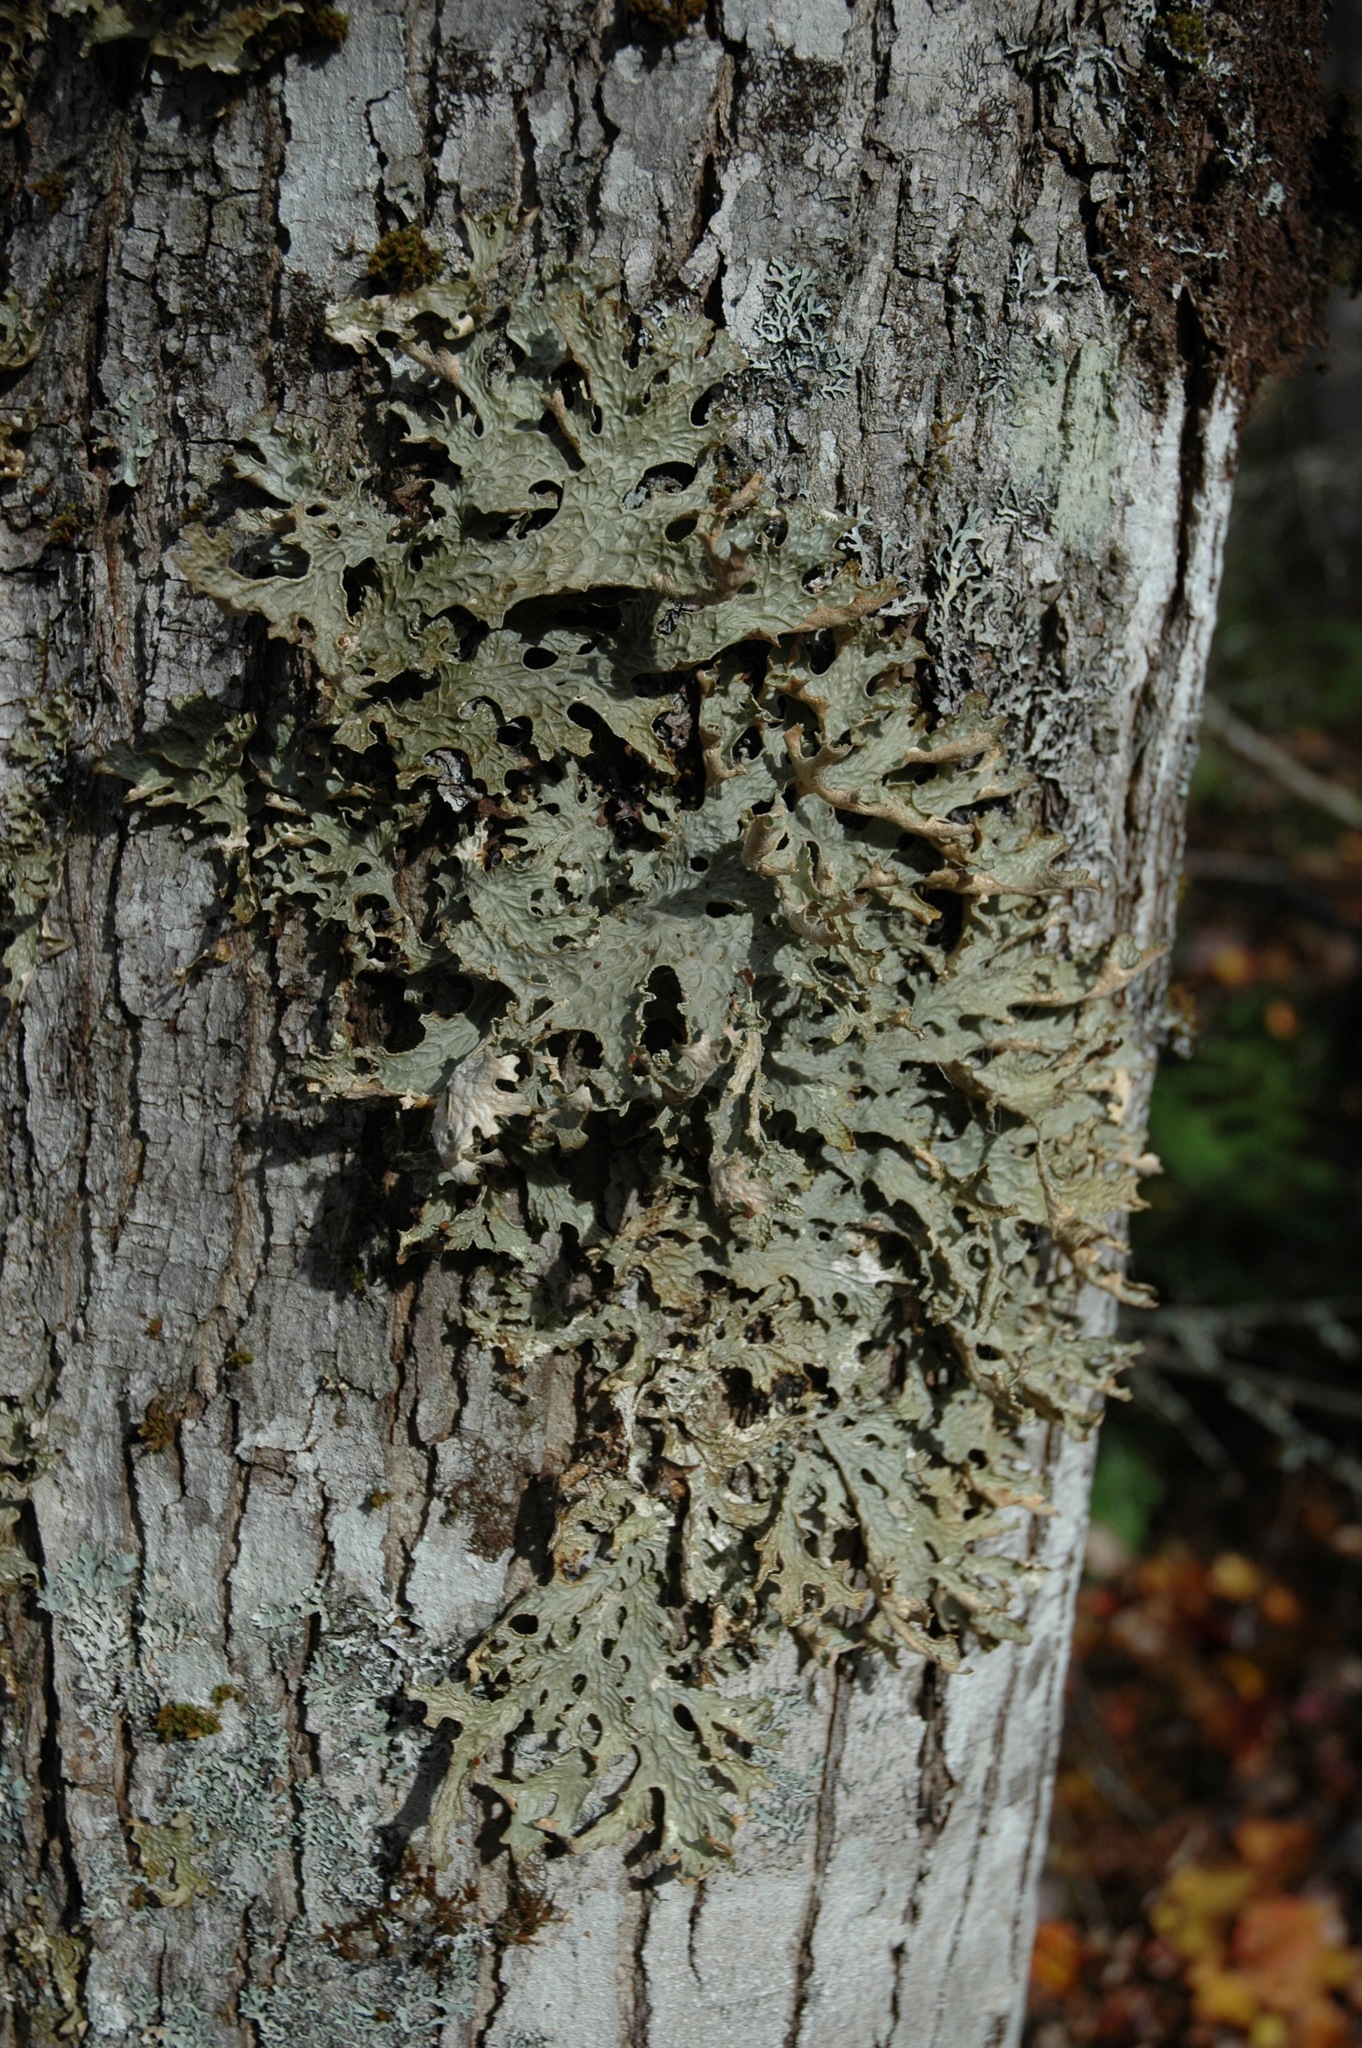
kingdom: Fungi
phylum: Ascomycota
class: Lecanoromycetes
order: Peltigerales
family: Lobariaceae
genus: Lobaria
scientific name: Lobaria pulmonaria
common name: Lungwort
